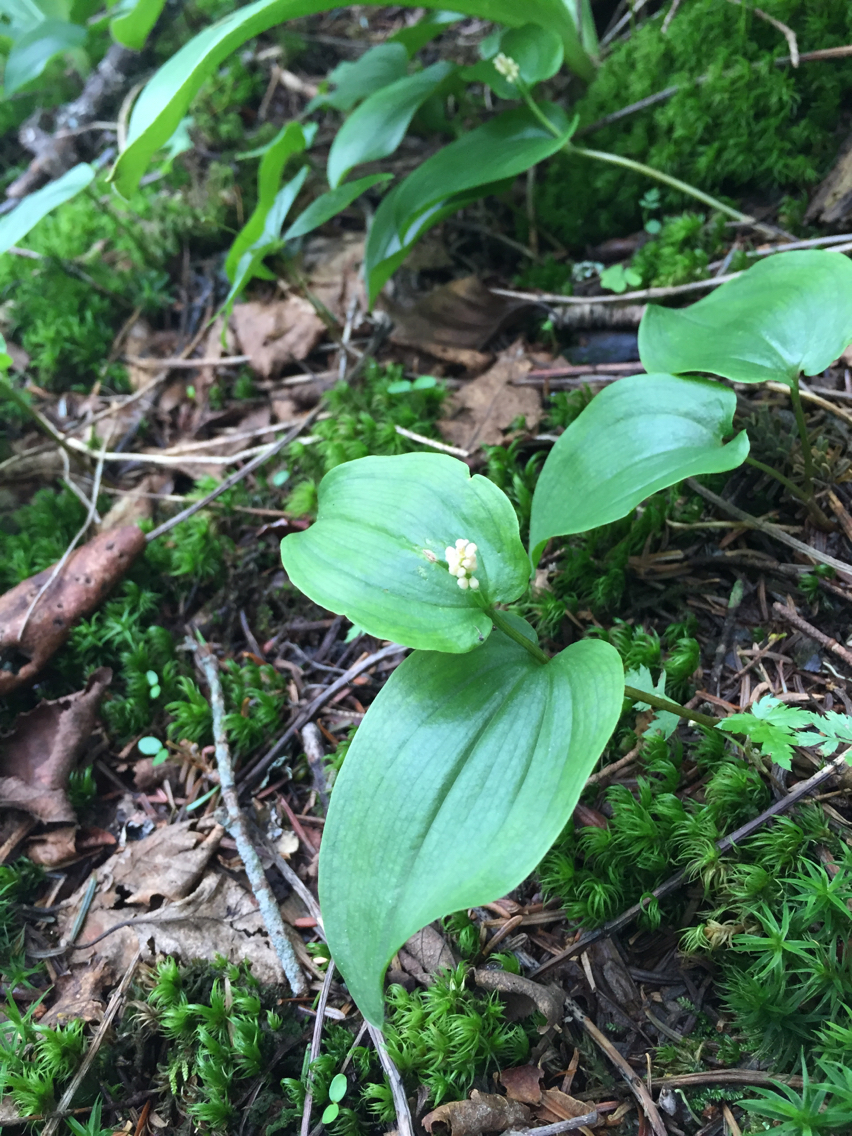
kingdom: Plantae
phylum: Tracheophyta
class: Liliopsida
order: Asparagales
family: Asparagaceae
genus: Maianthemum
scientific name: Maianthemum canadense
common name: False lily-of-the-valley
